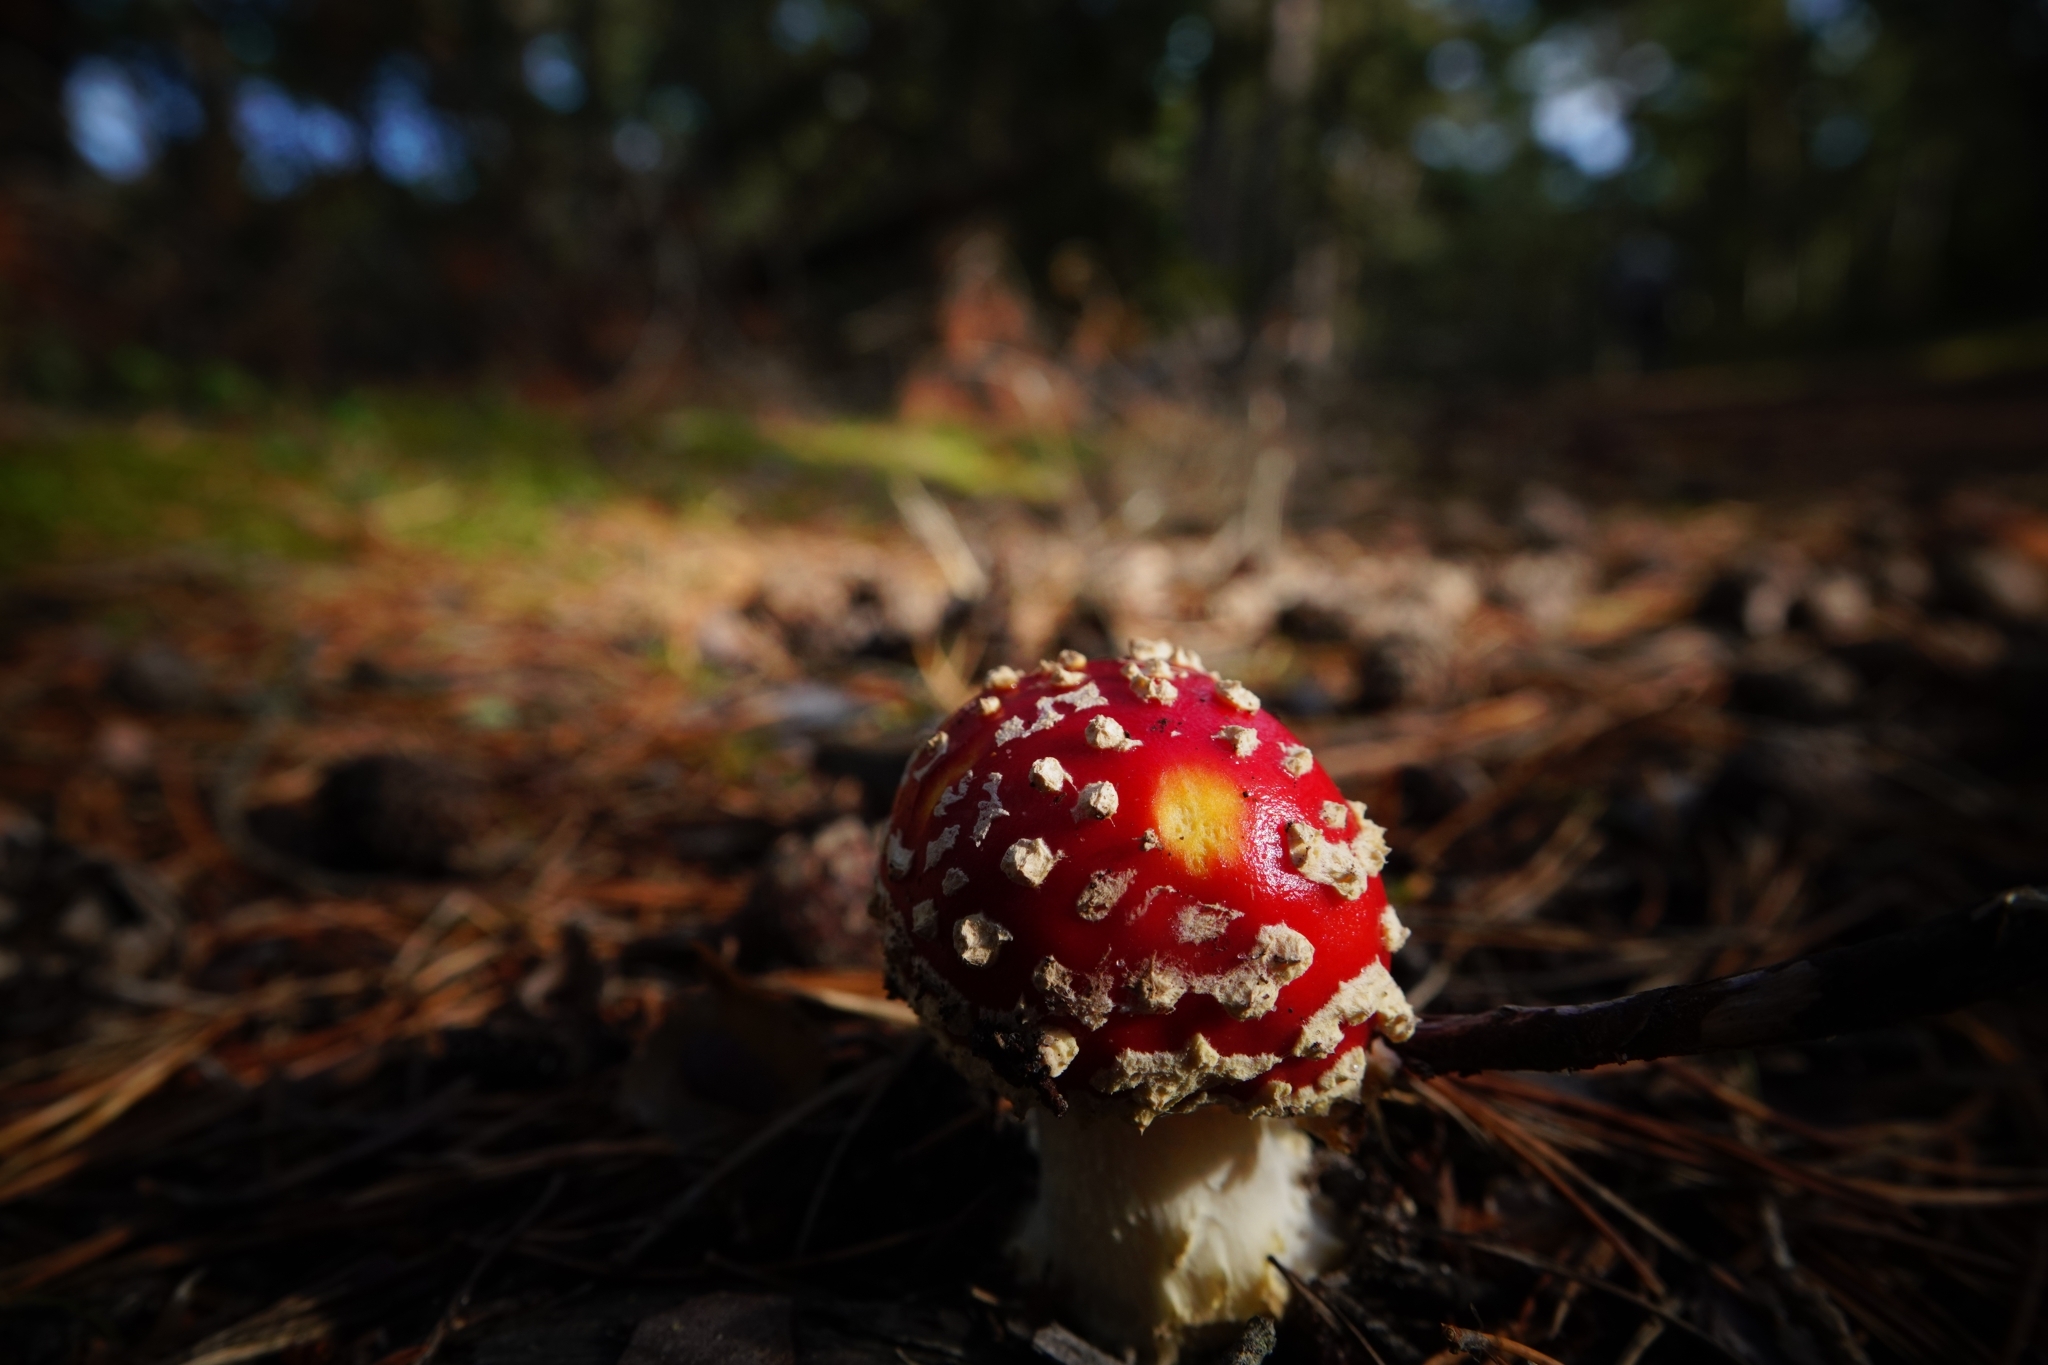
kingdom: Fungi
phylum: Basidiomycota
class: Agaricomycetes
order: Agaricales
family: Amanitaceae
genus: Amanita
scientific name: Amanita muscaria
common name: Fly agaric
